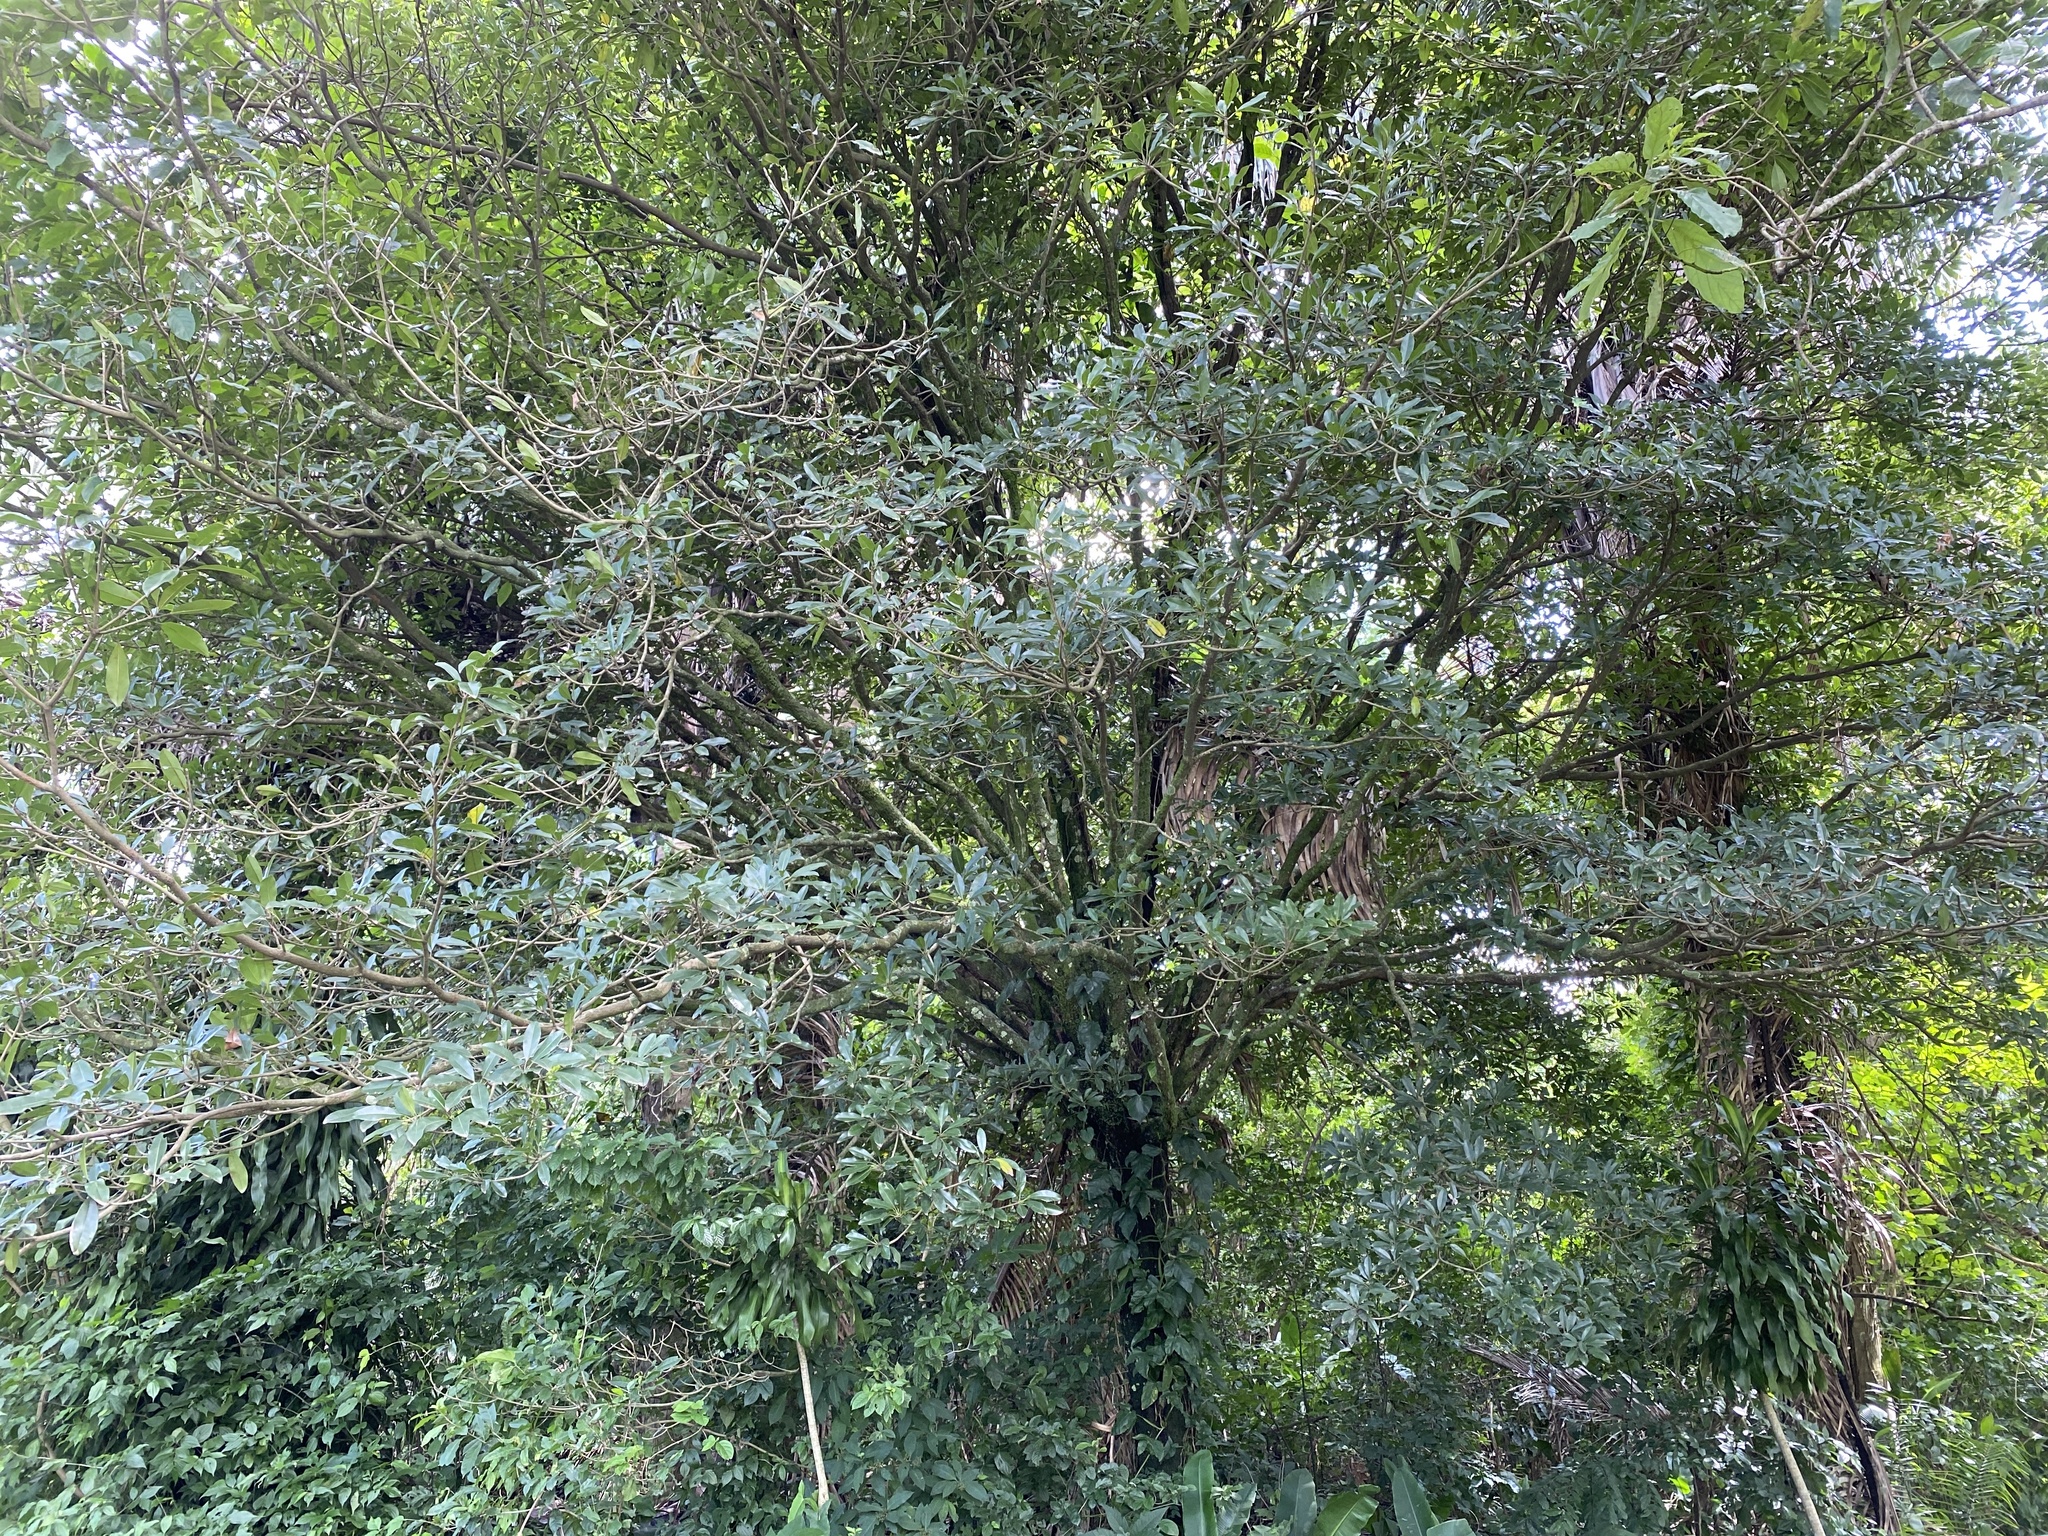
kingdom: Plantae
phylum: Tracheophyta
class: Magnoliopsida
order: Ericales
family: Sapotaceae
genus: Manilkara
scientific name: Manilkara zapota
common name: Sapodilla
